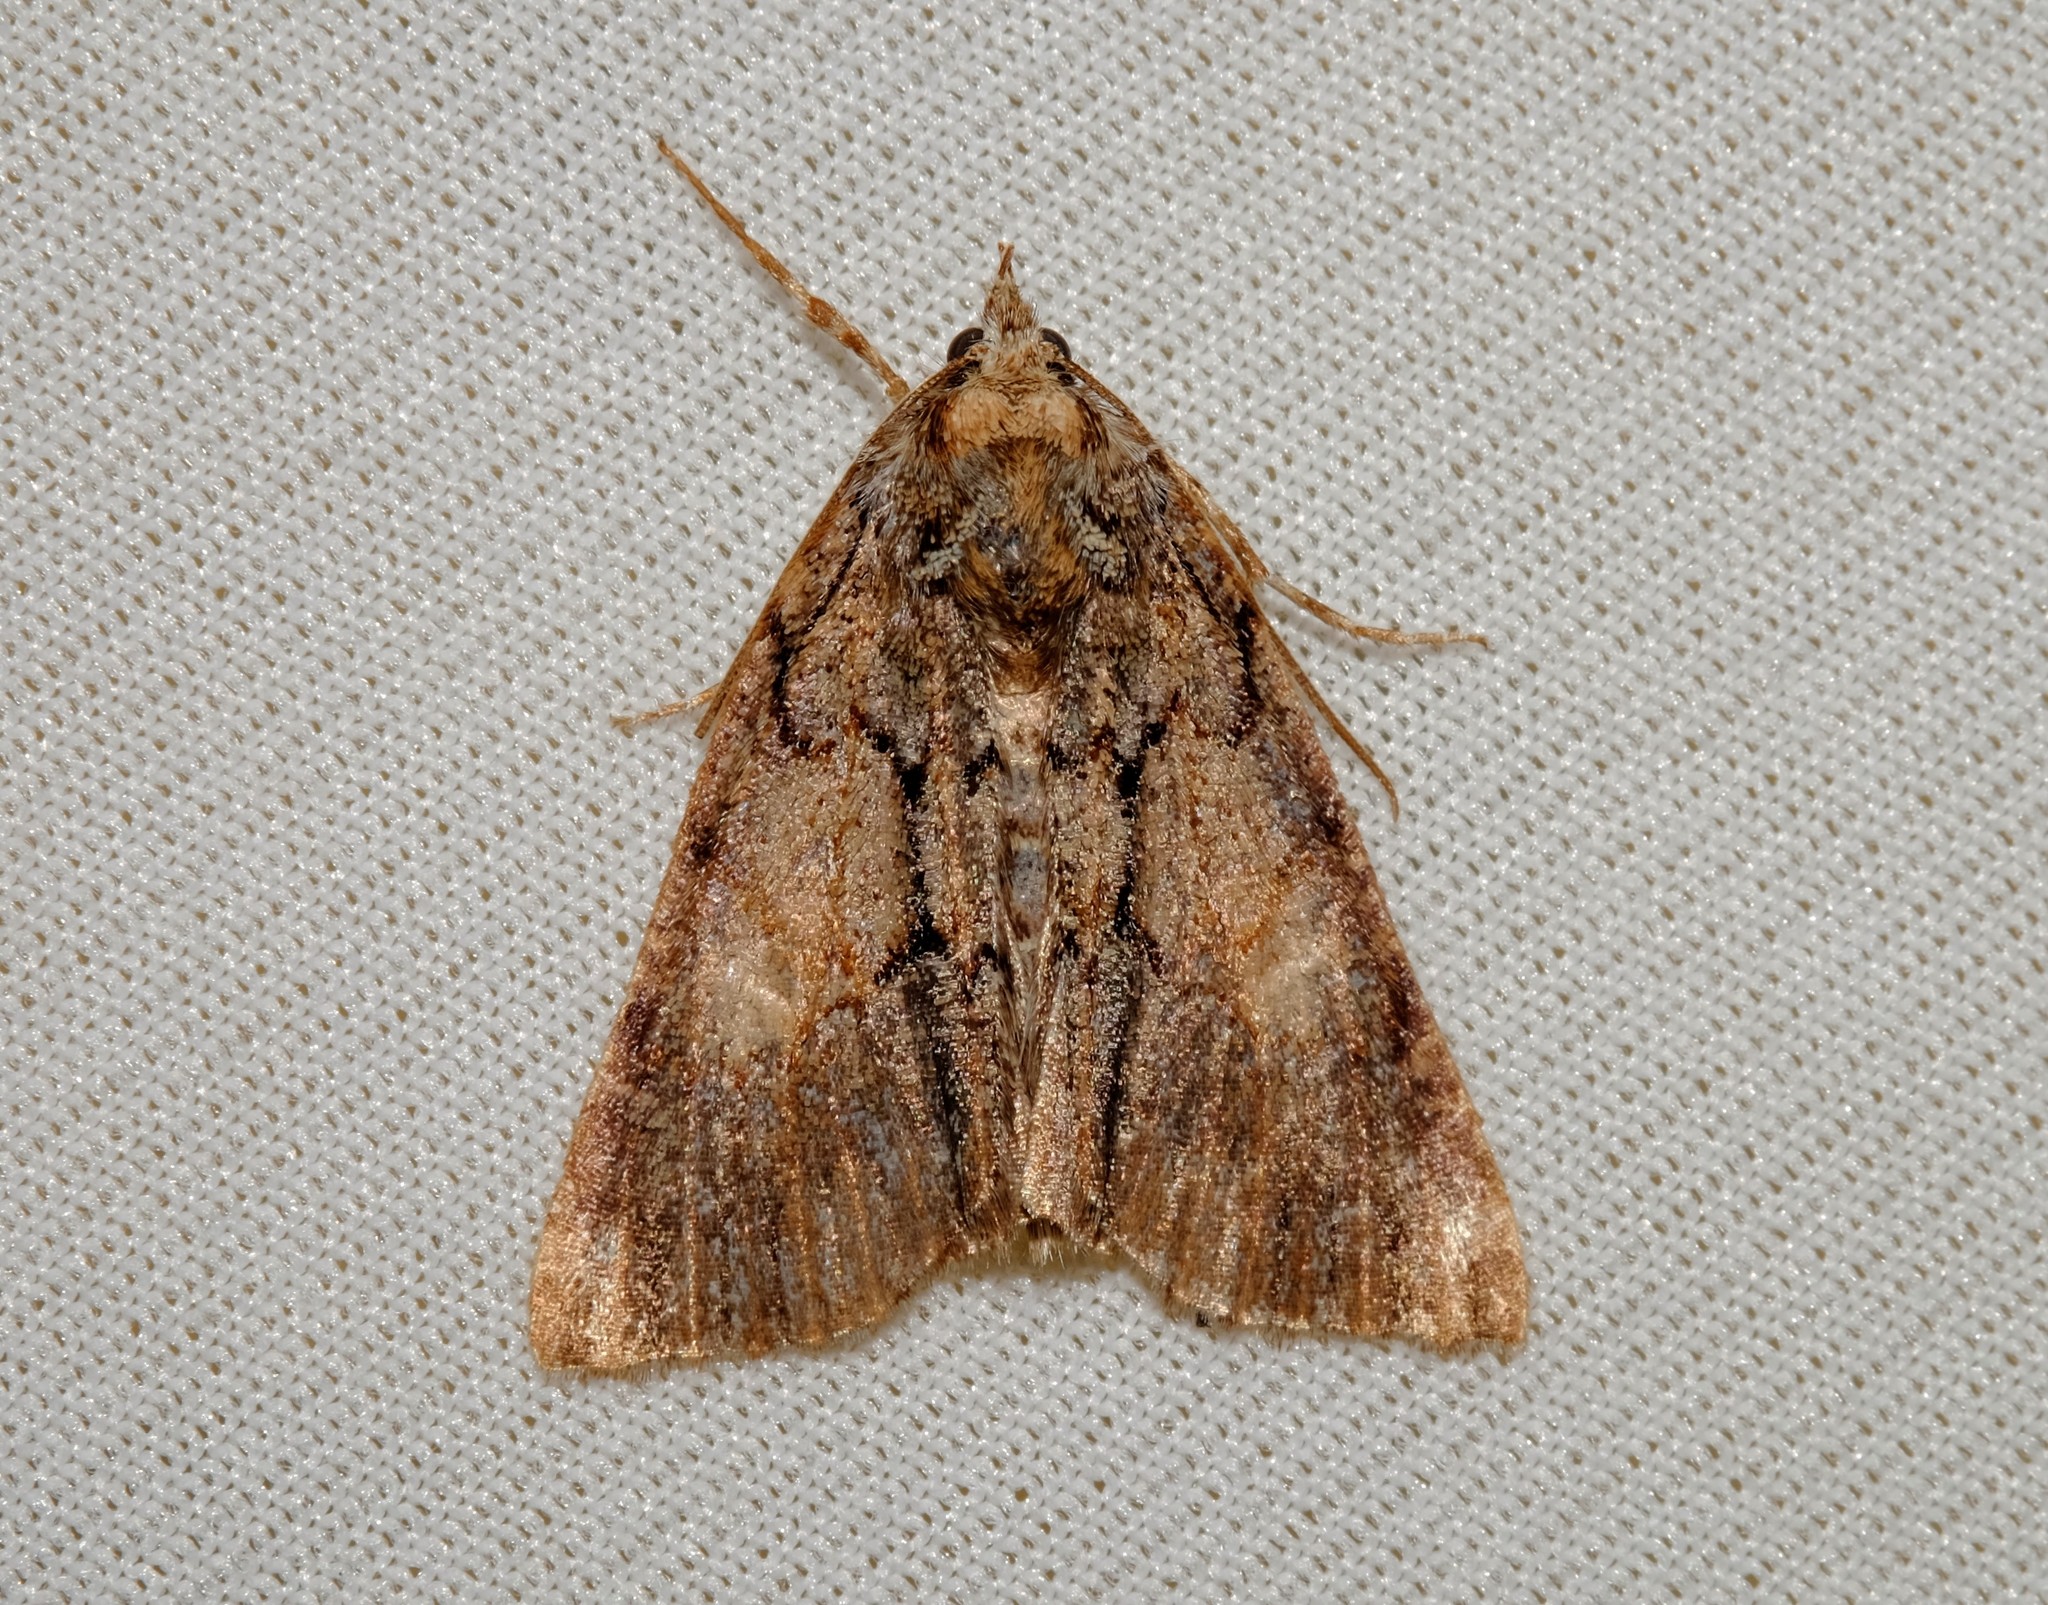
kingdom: Animalia
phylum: Arthropoda
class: Insecta
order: Lepidoptera
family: Geometridae
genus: Smyriodes
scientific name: Smyriodes
